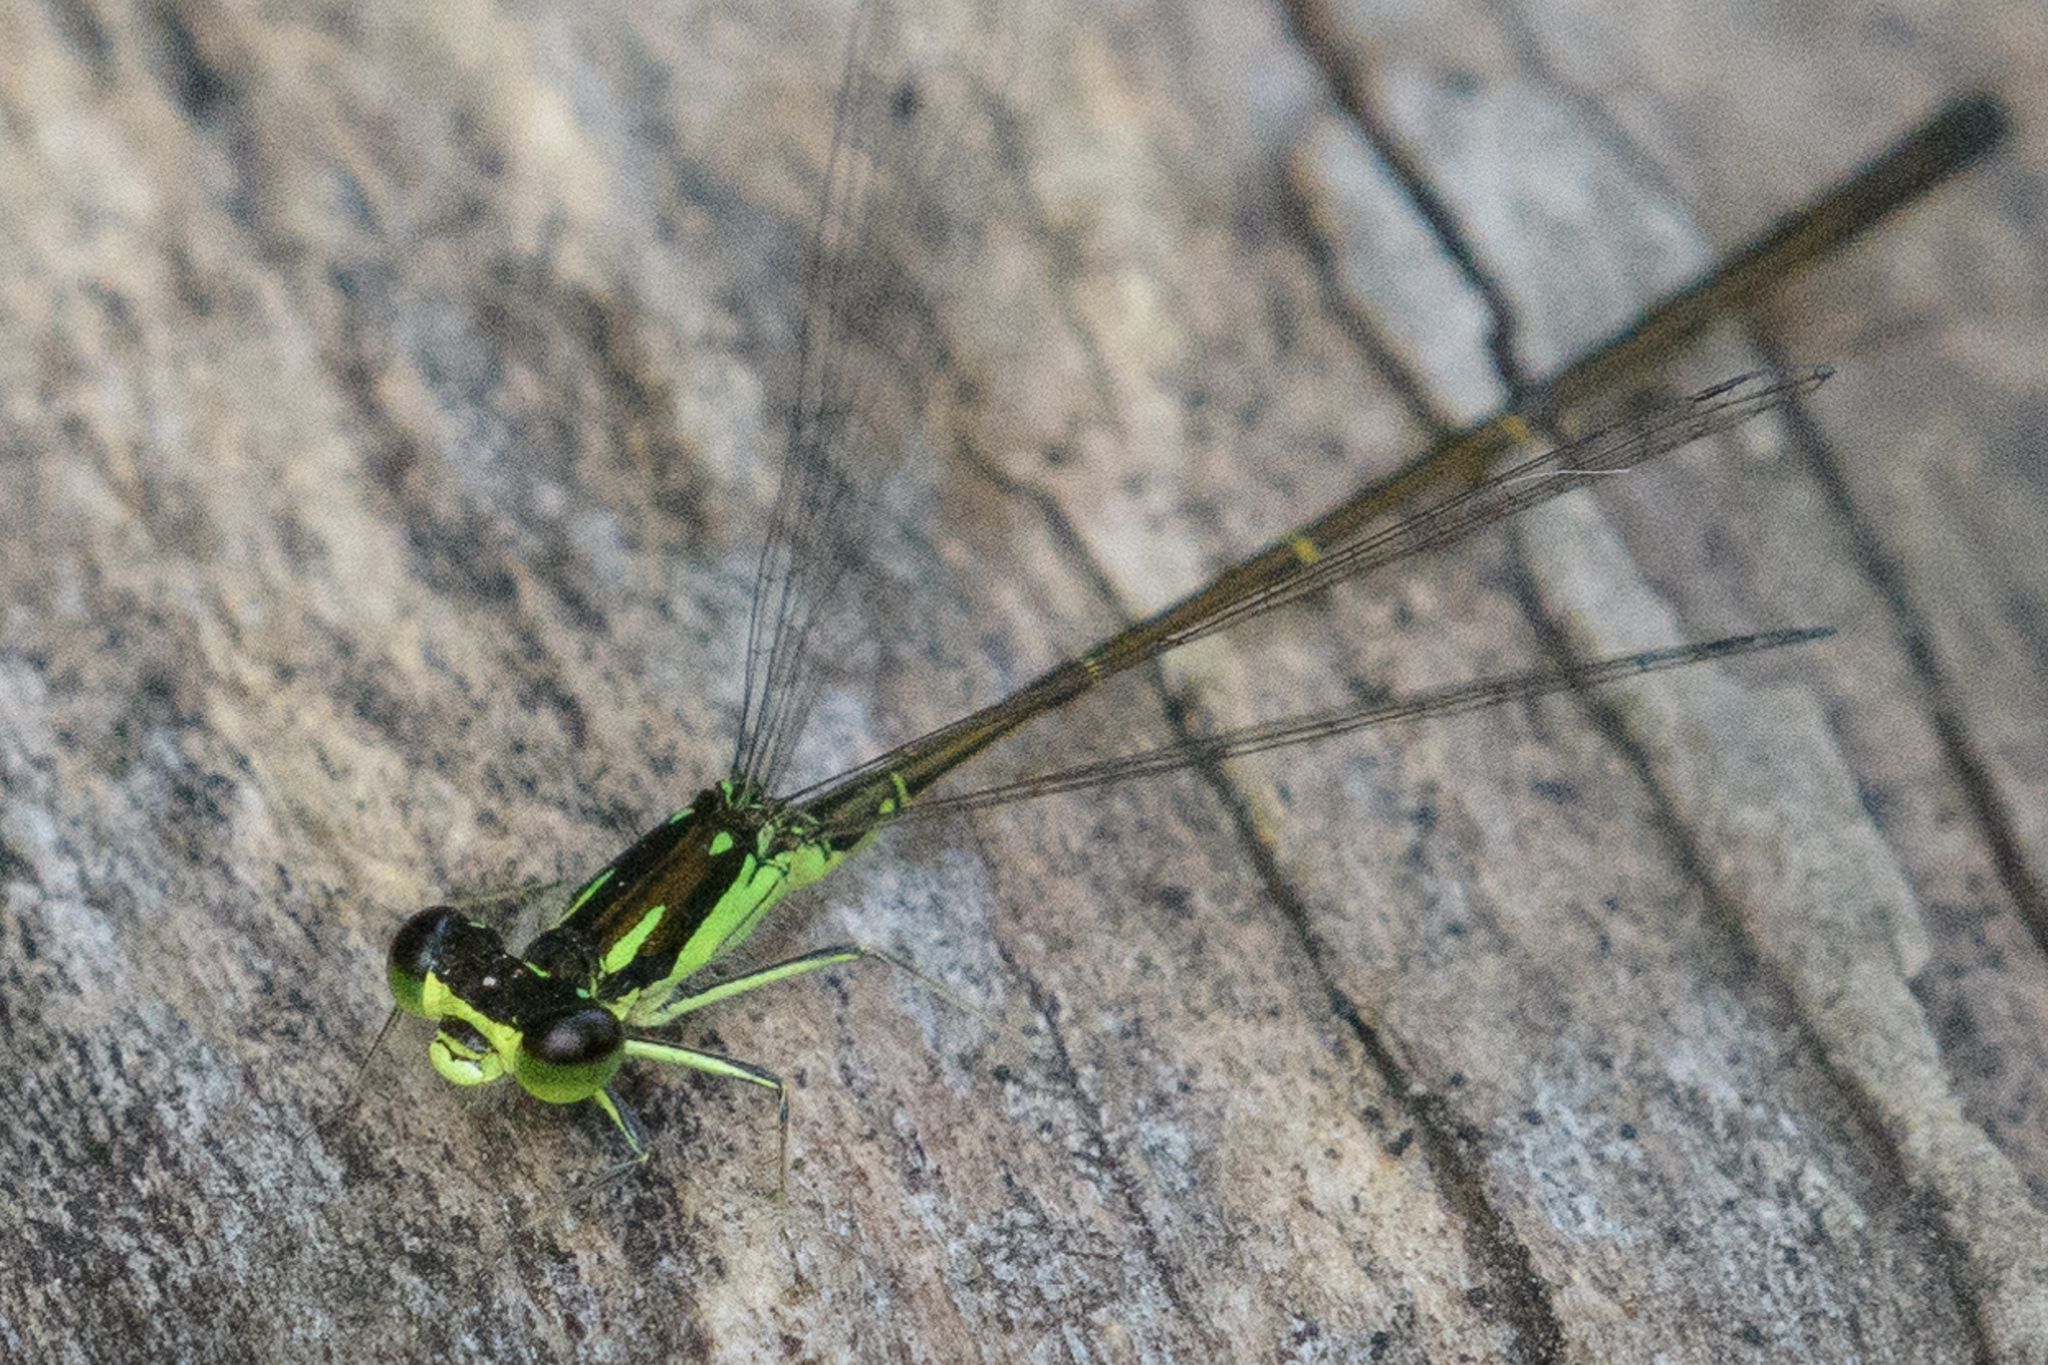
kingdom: Animalia
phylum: Arthropoda
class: Insecta
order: Odonata
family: Coenagrionidae
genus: Ischnura
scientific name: Ischnura posita
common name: Fragile forktail
